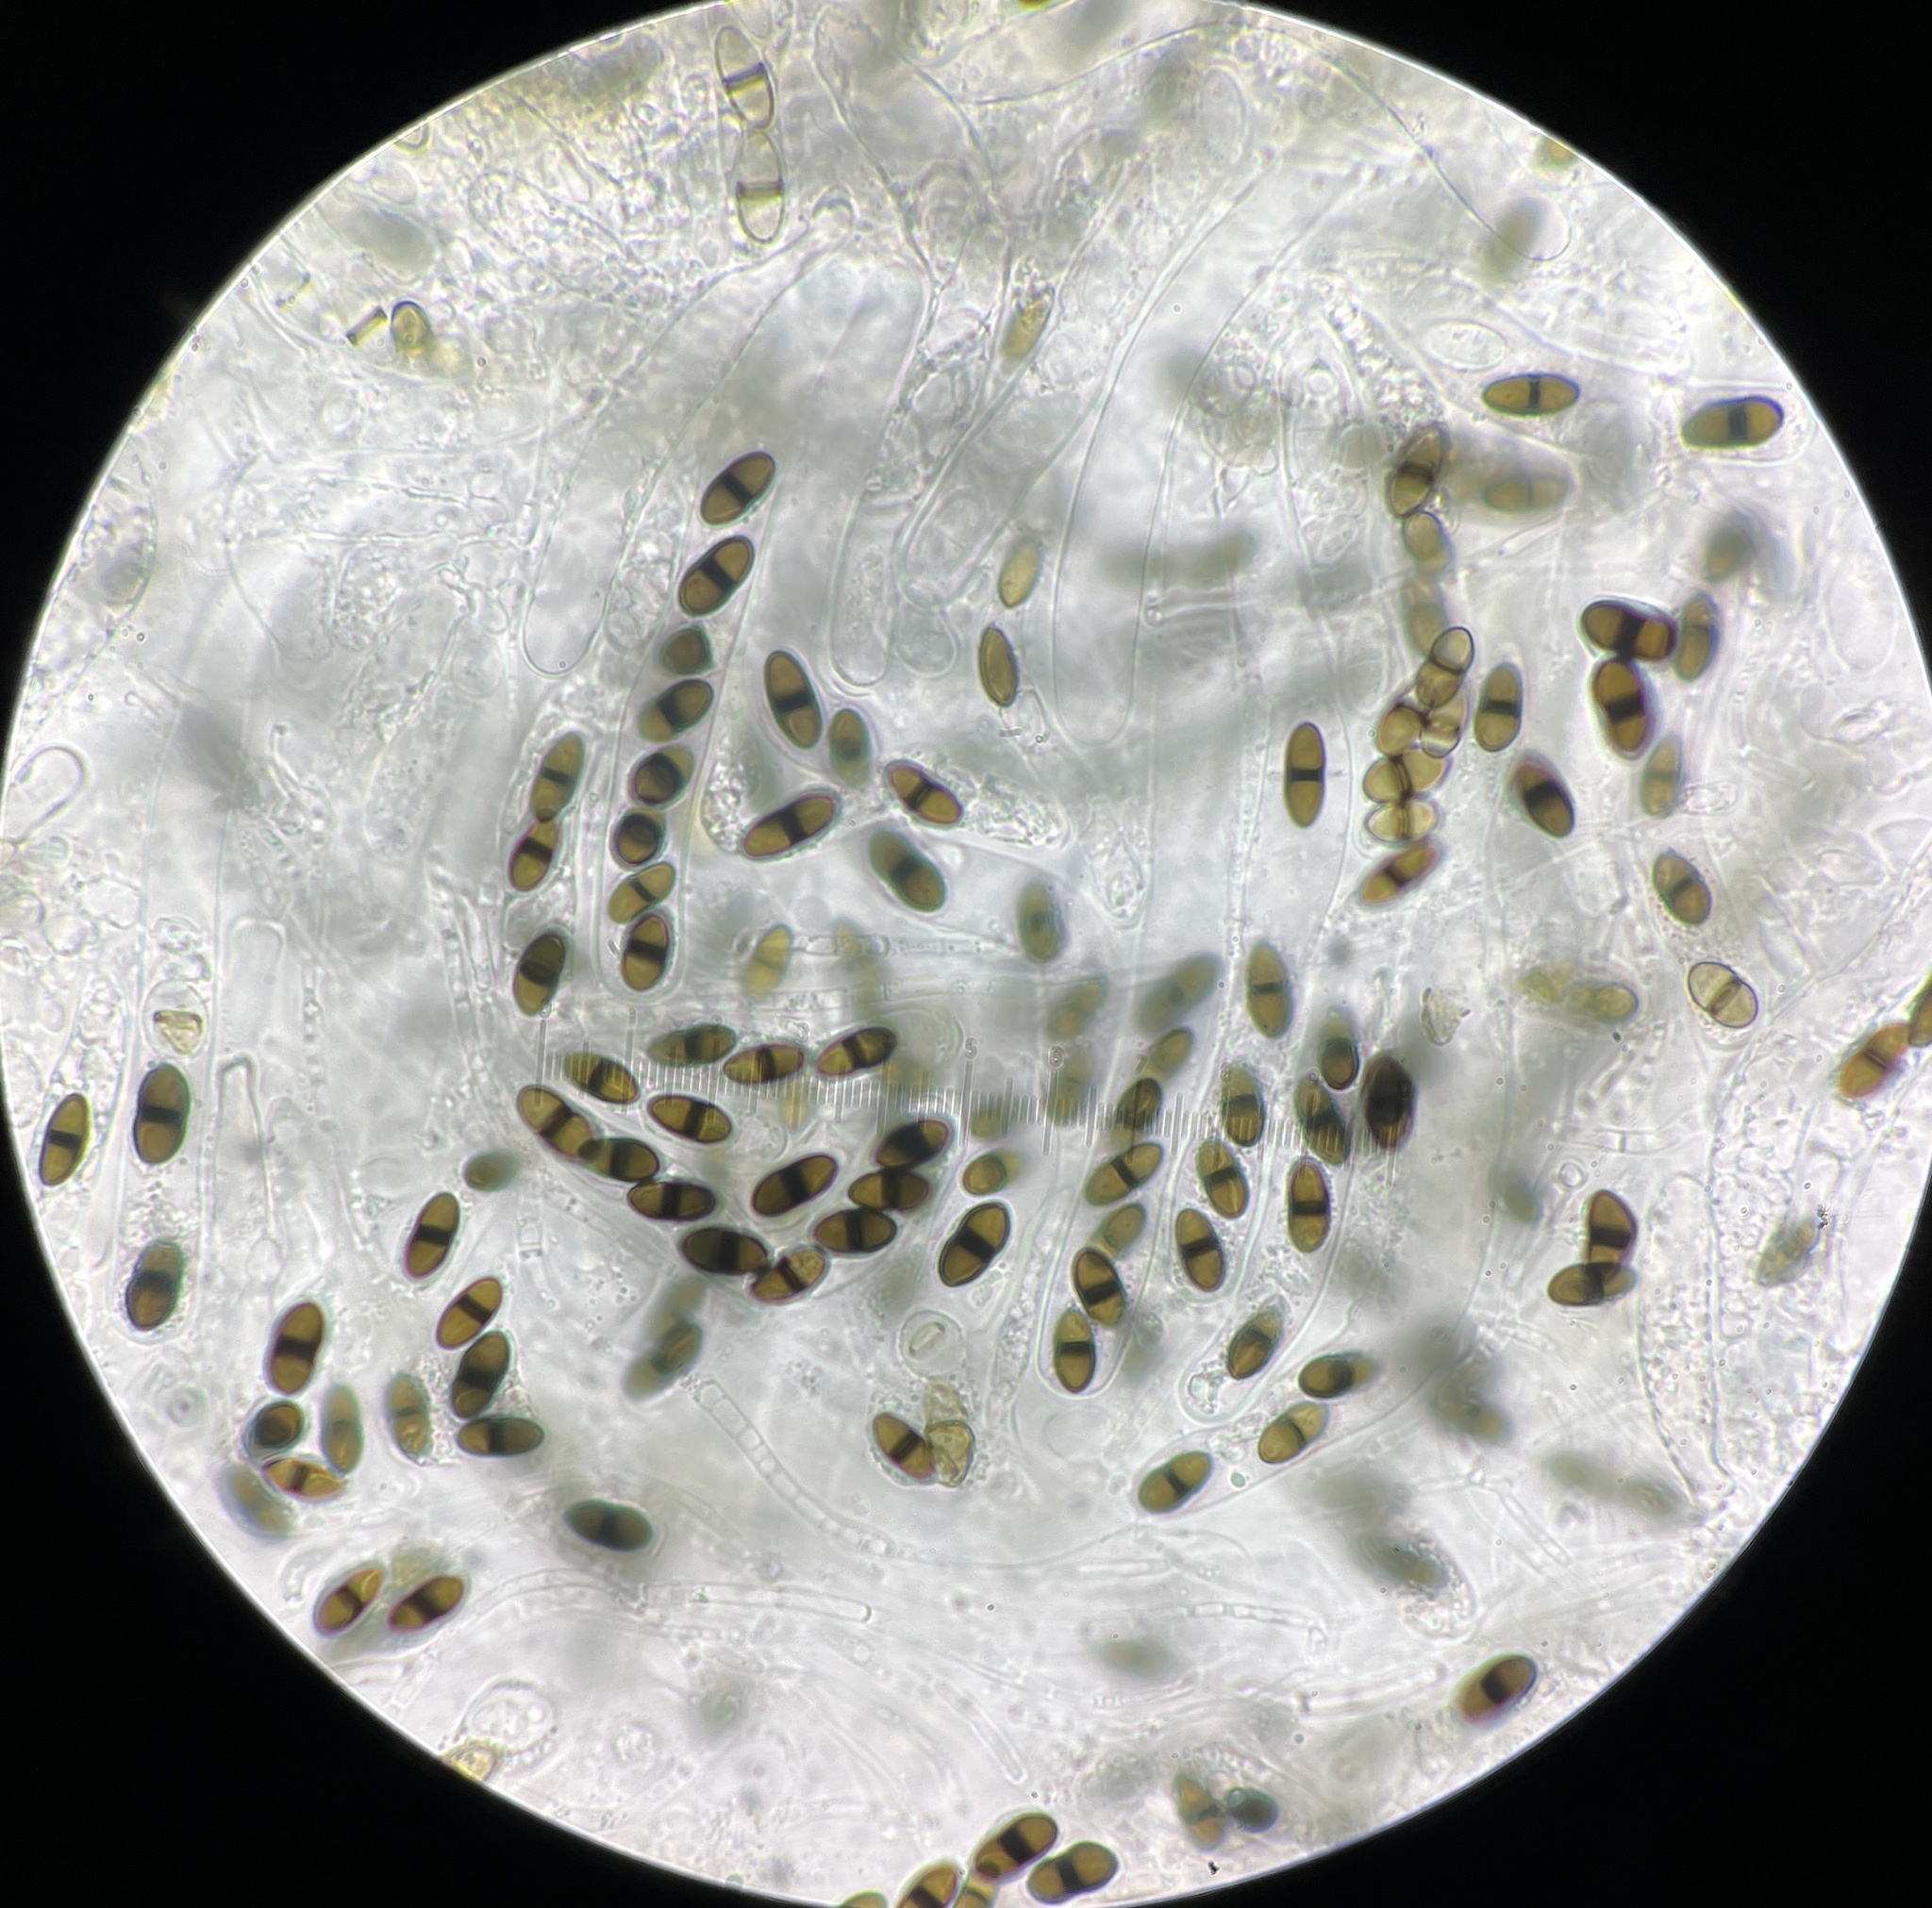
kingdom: Fungi
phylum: Ascomycota
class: Dothideomycetes
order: Pleosporales
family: Delitschiaceae
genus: Delitschia
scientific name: Delitschia marchalii
